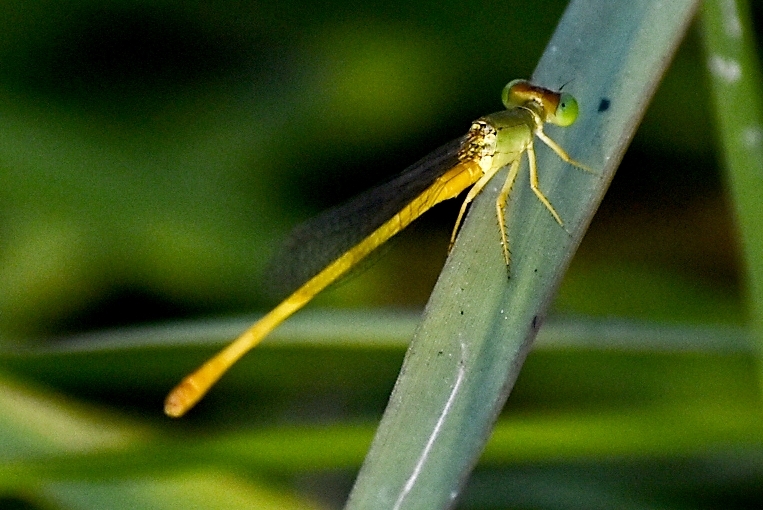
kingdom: Animalia
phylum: Arthropoda
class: Insecta
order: Odonata
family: Coenagrionidae
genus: Ceriagrion
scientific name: Ceriagrion coromandelianum
